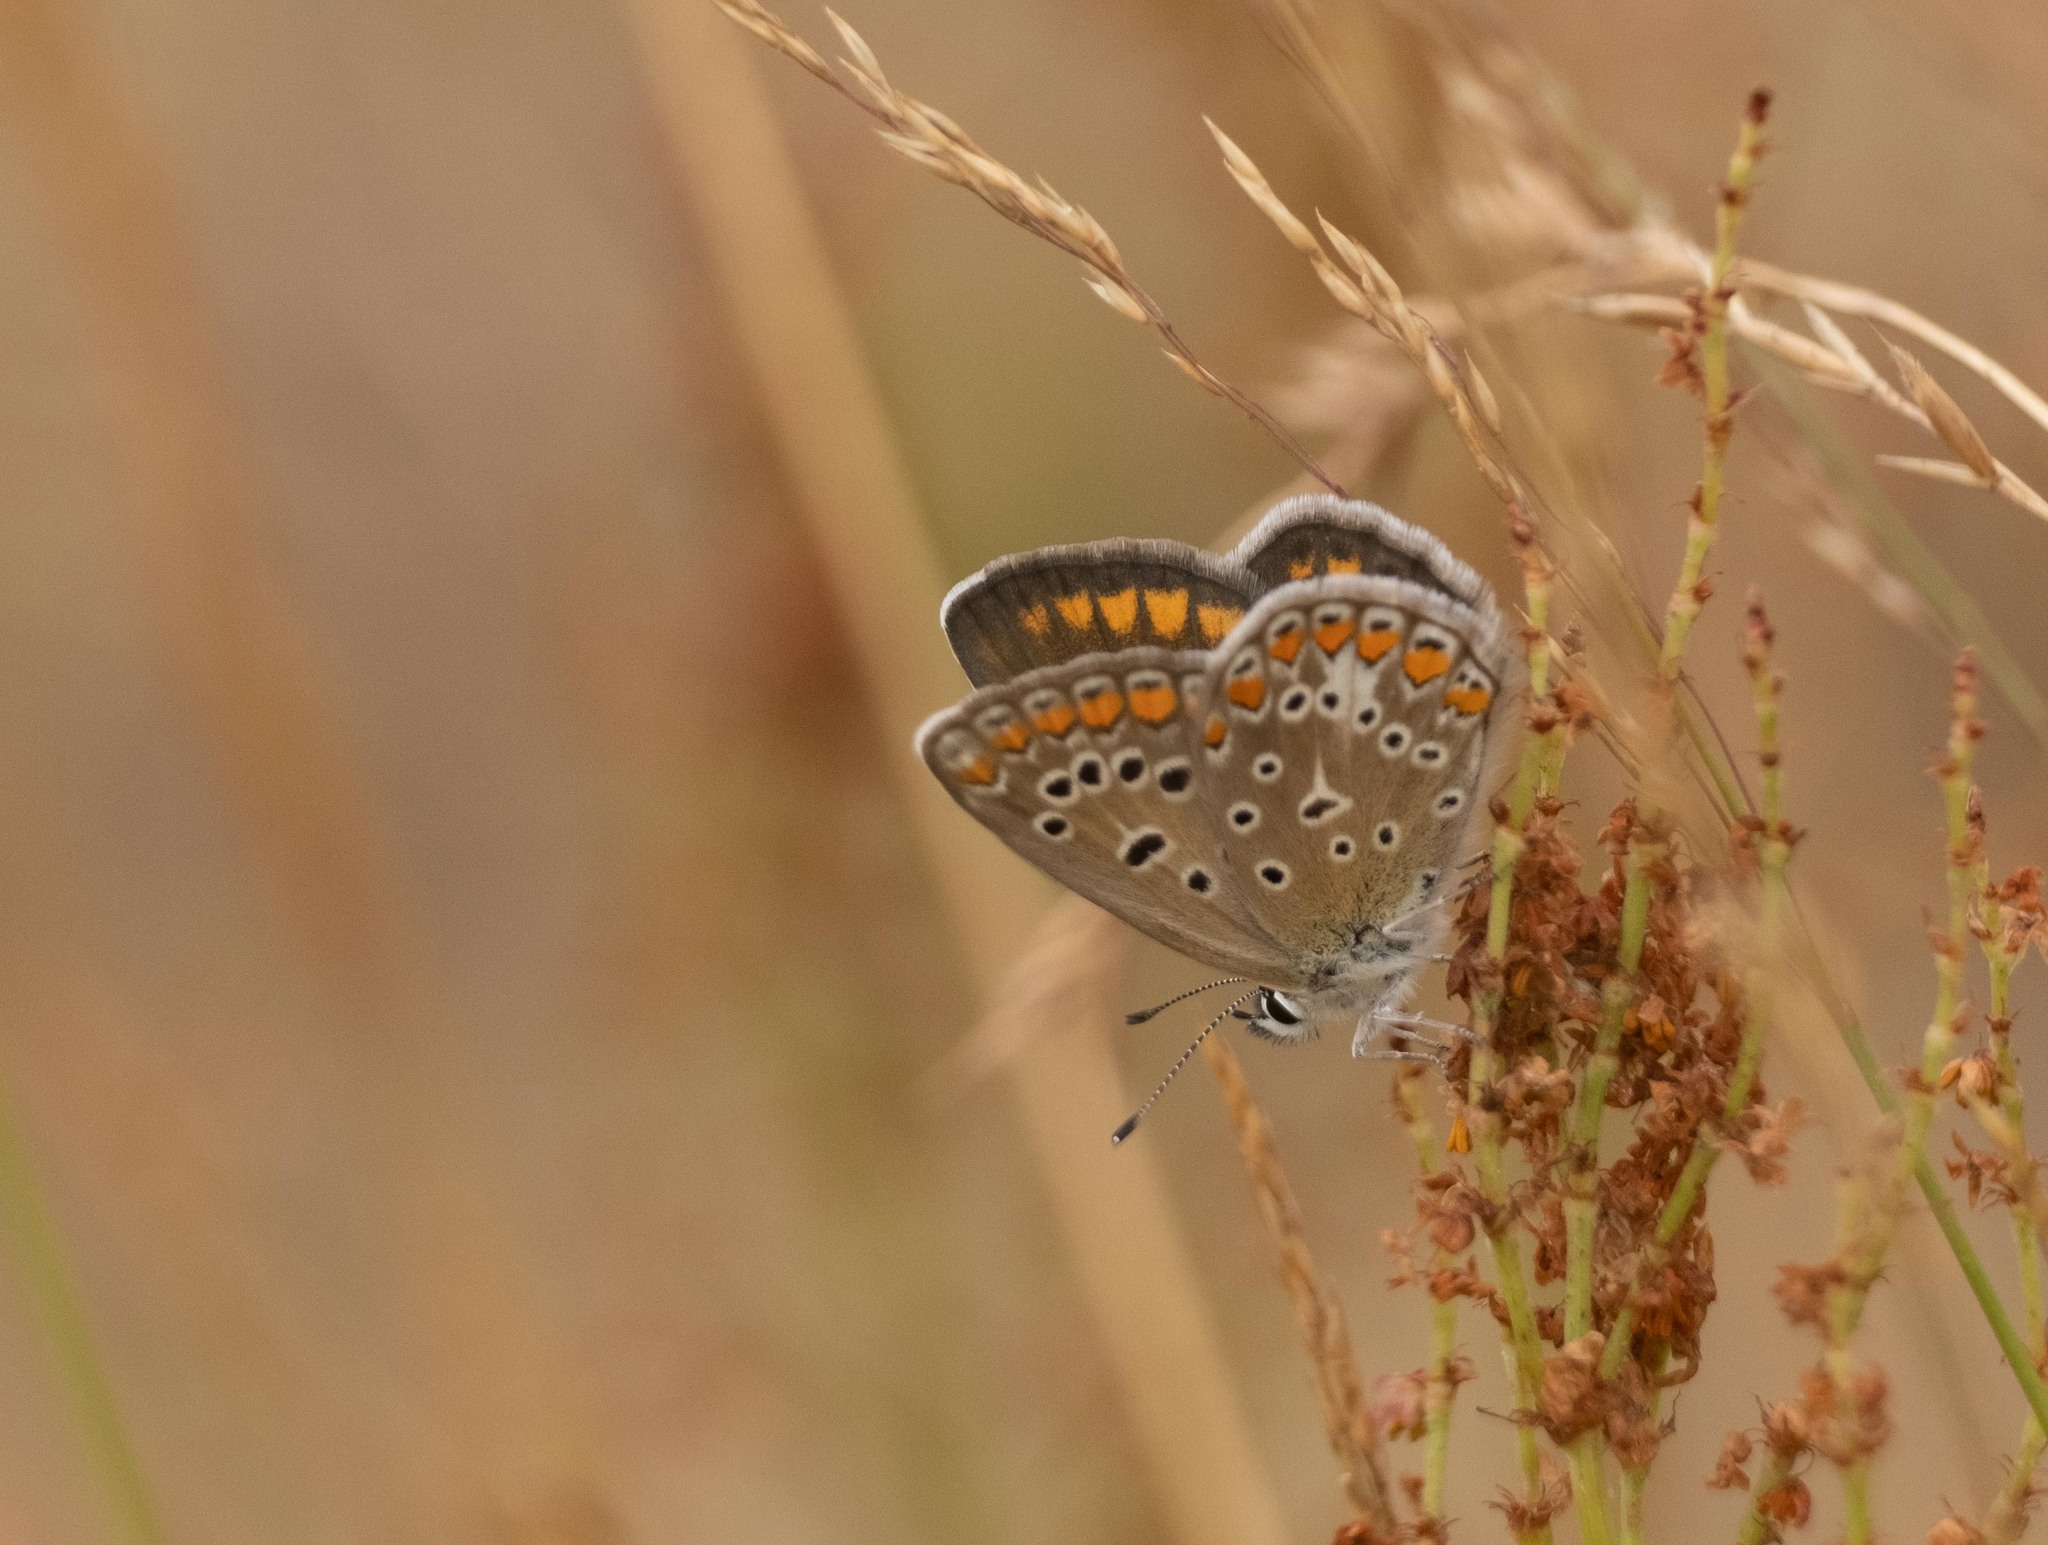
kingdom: Animalia
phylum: Arthropoda
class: Insecta
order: Lepidoptera
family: Lycaenidae
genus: Polyommatus
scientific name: Polyommatus icarus
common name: Common blue
